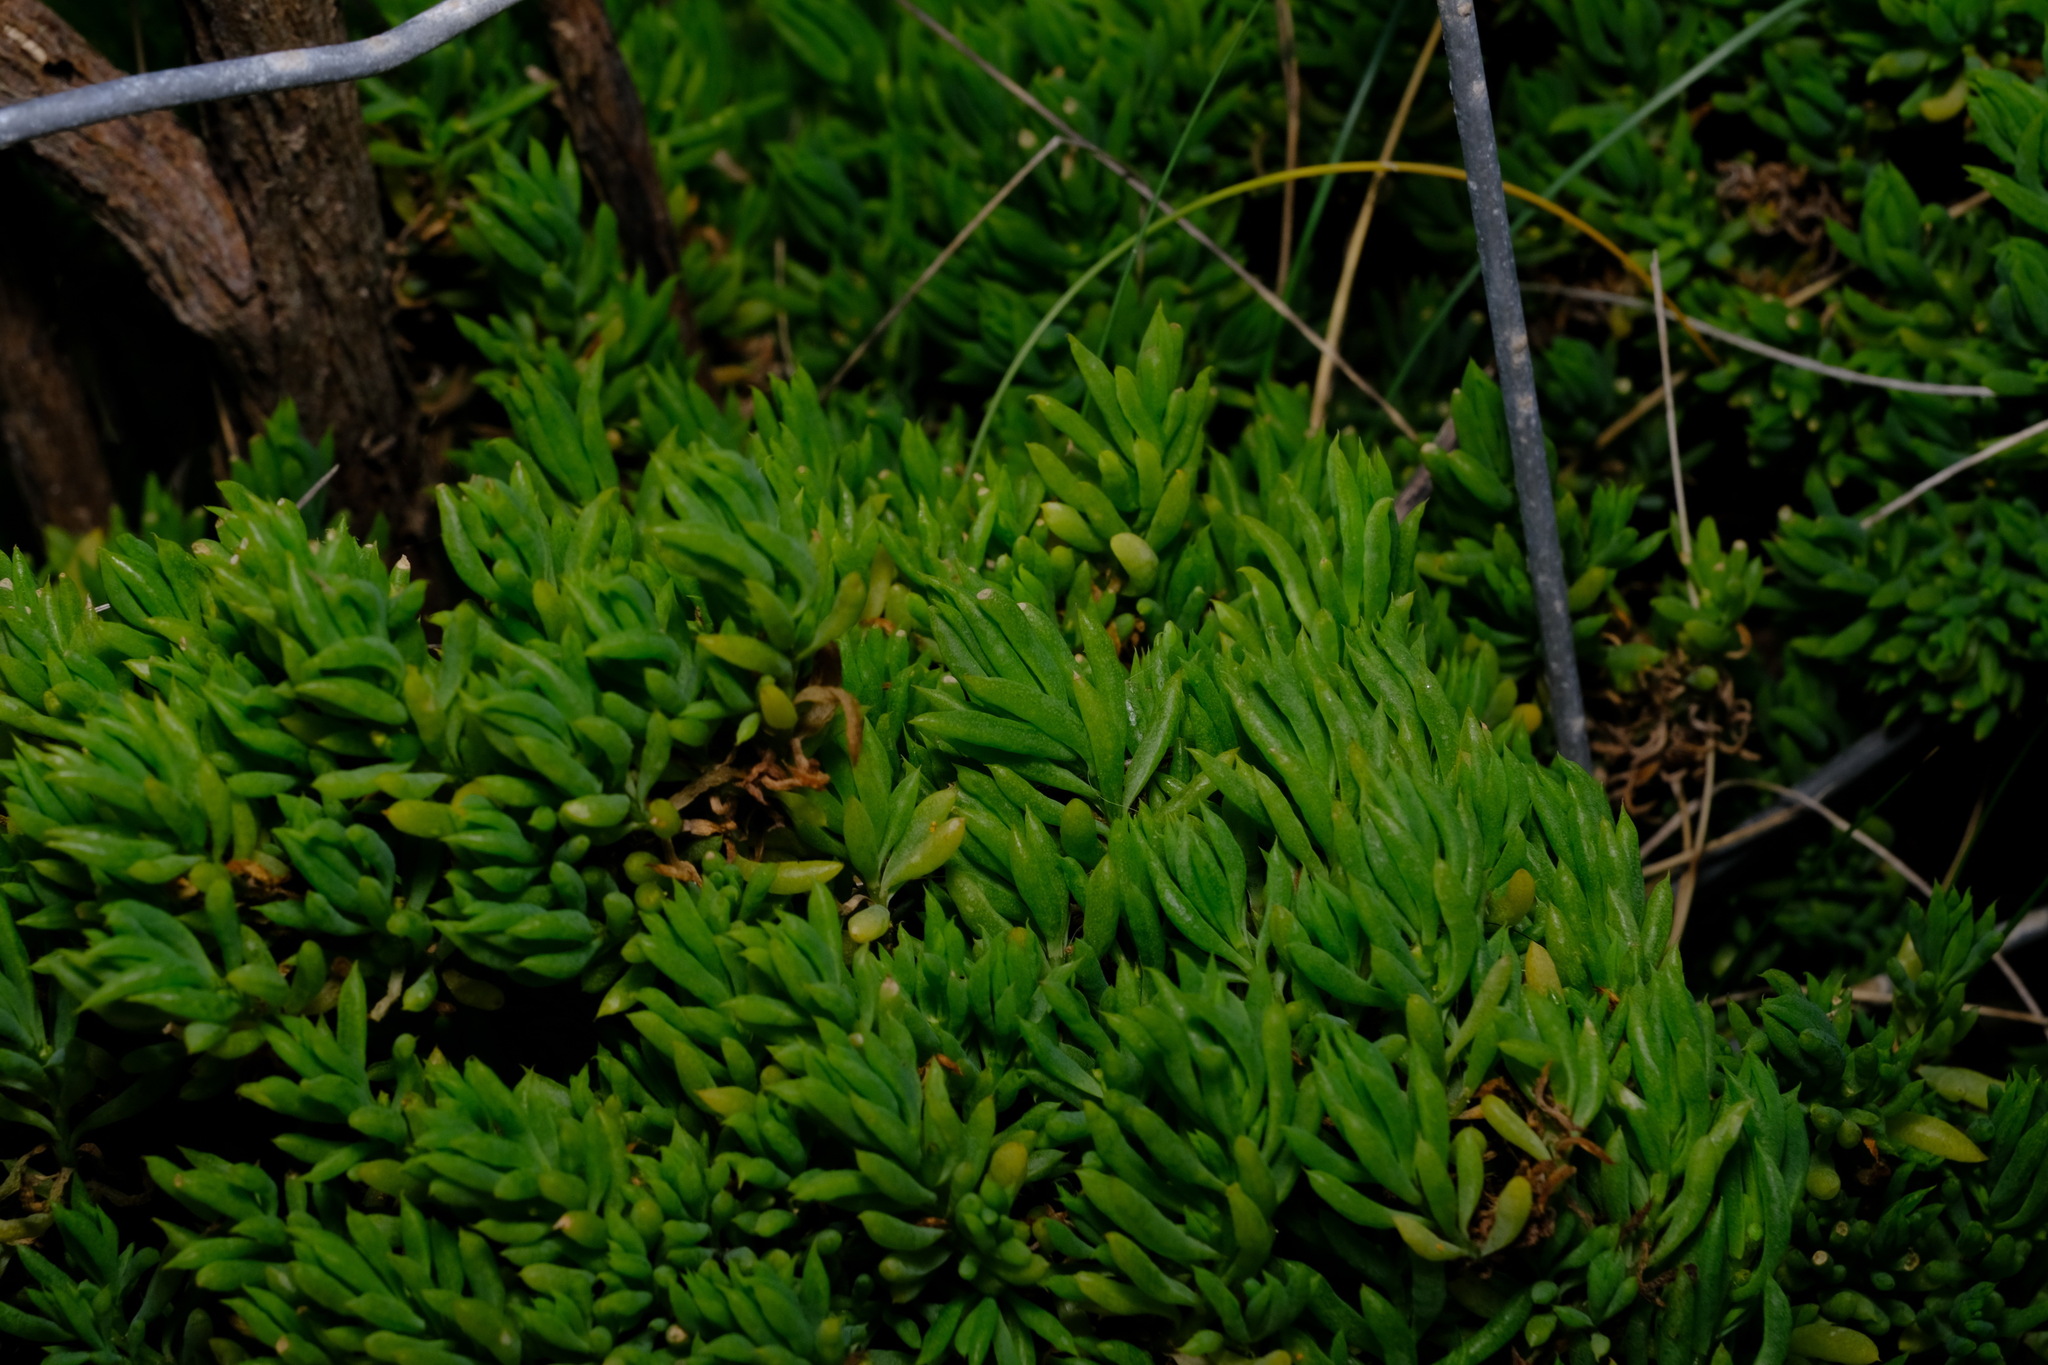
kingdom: Plantae
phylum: Tracheophyta
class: Magnoliopsida
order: Caryophyllales
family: Amaranthaceae
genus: Threlkeldia
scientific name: Threlkeldia diffusa
